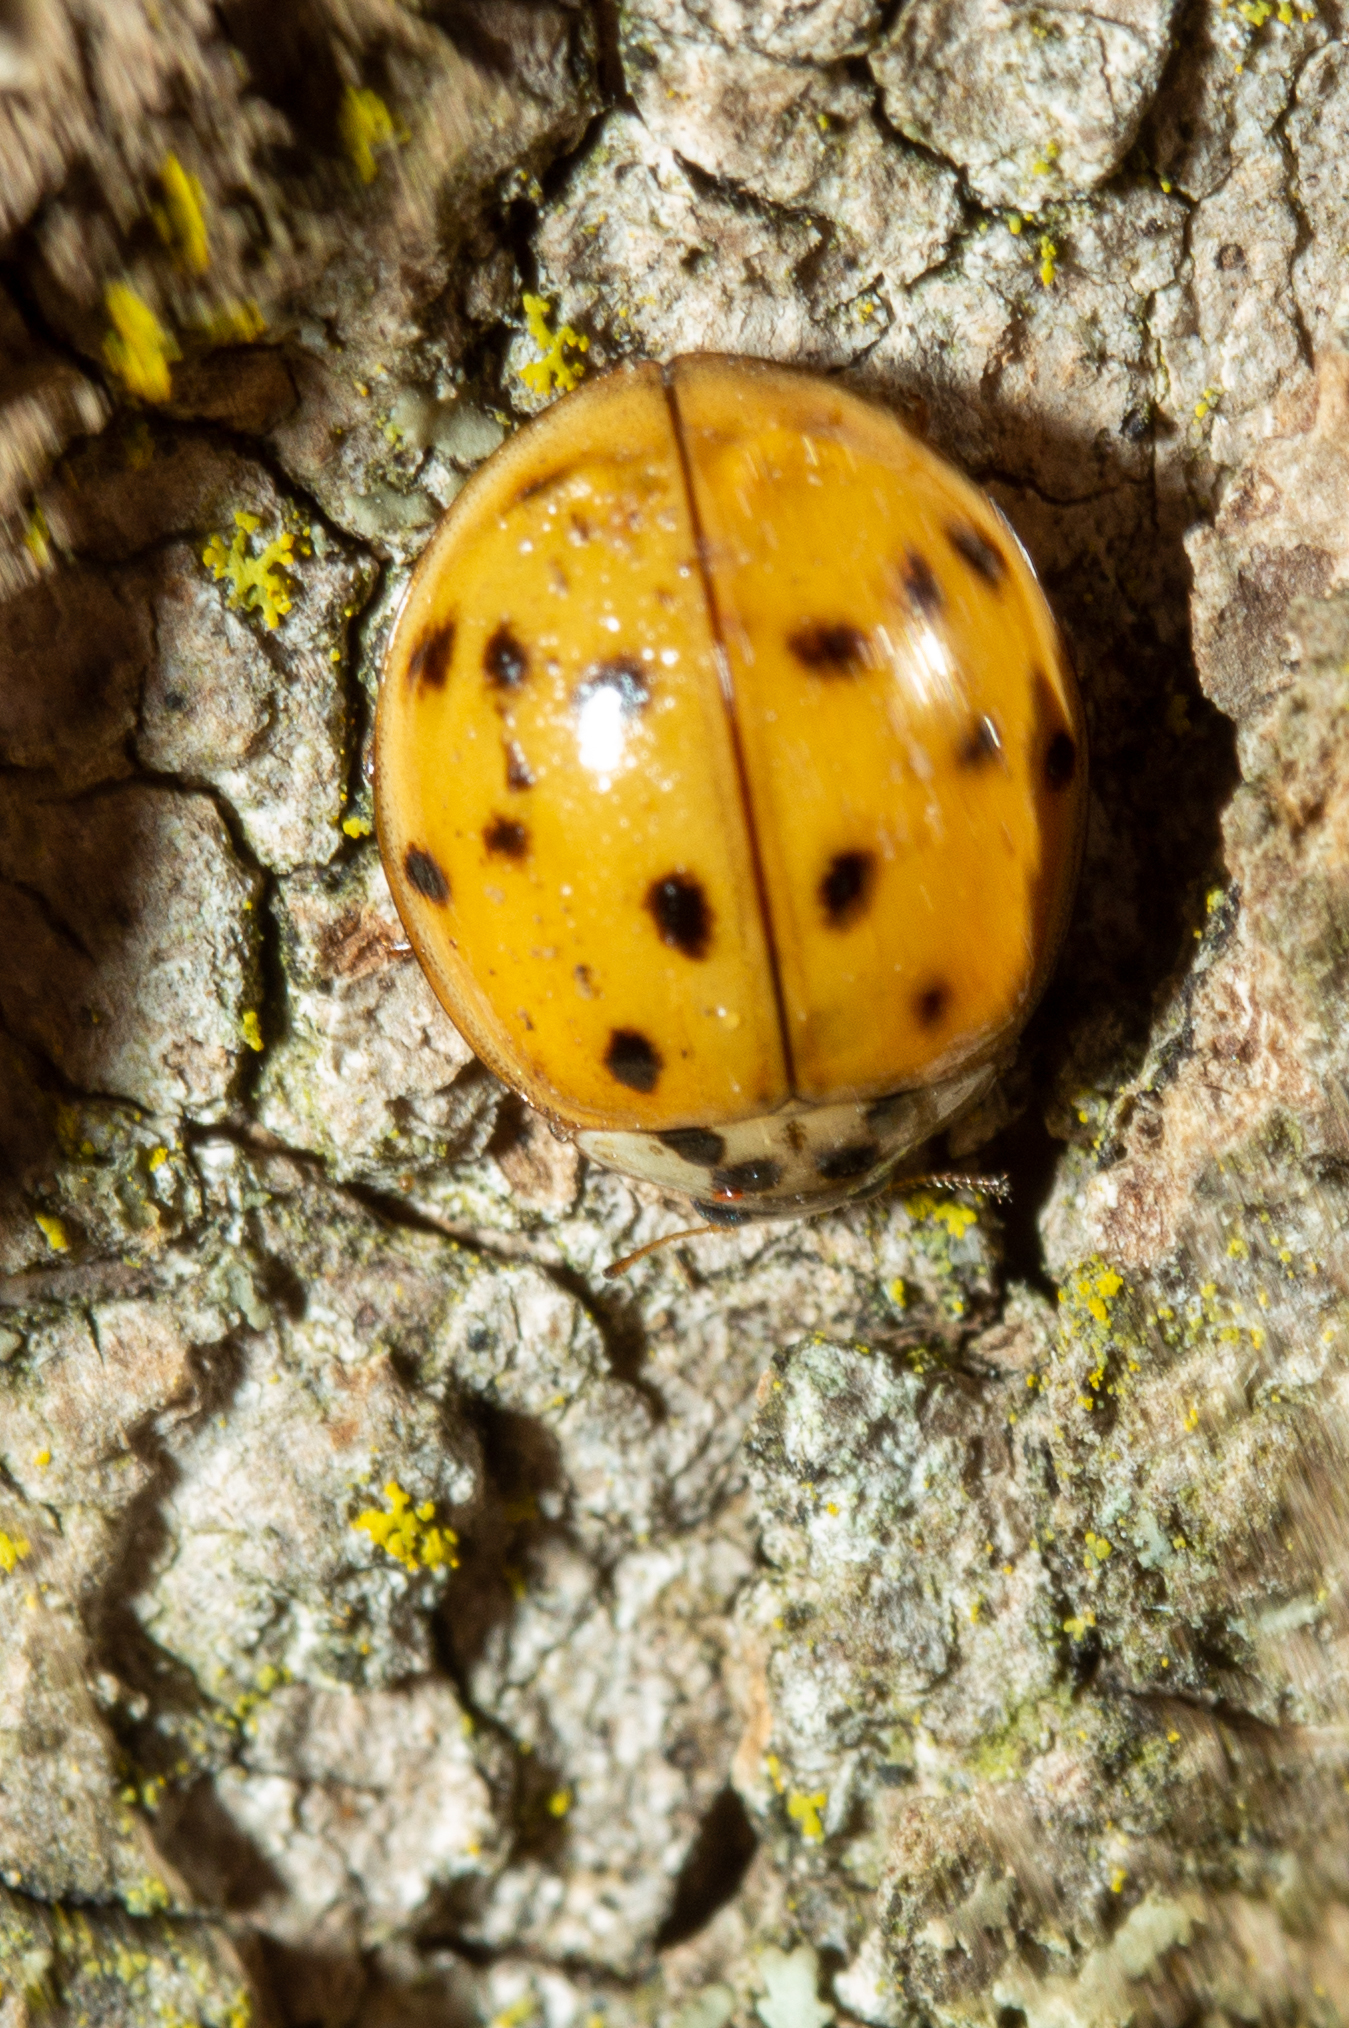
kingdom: Animalia
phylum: Arthropoda
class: Insecta
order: Coleoptera
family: Coccinellidae
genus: Harmonia
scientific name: Harmonia axyridis
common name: Harlequin ladybird
